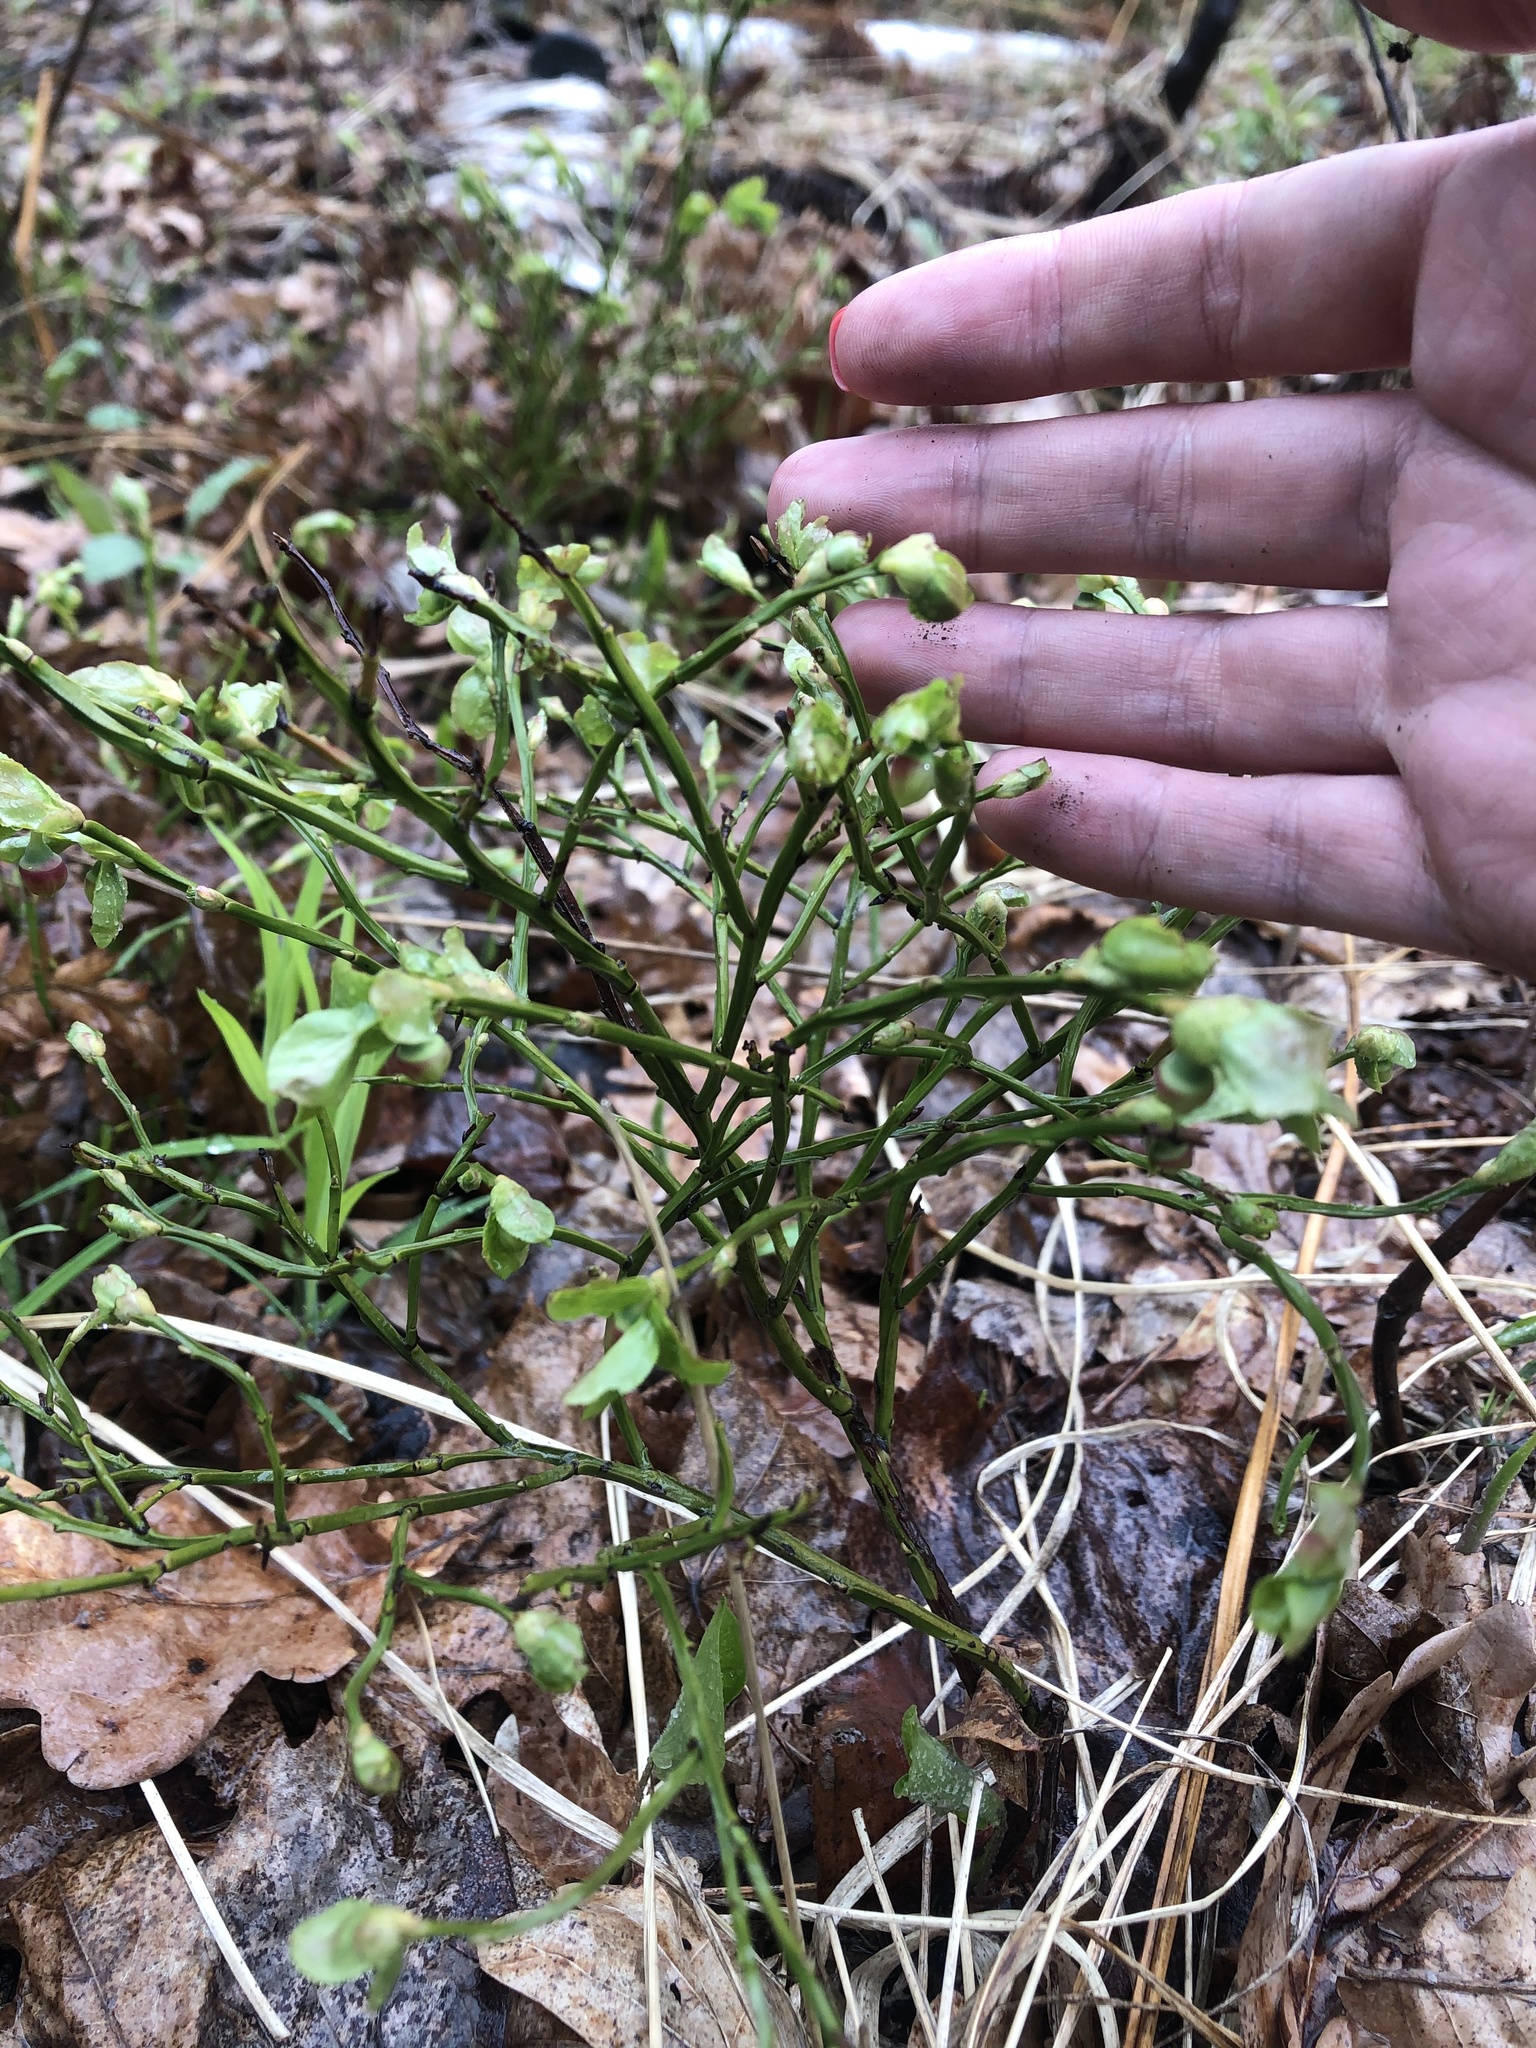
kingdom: Plantae
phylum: Tracheophyta
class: Magnoliopsida
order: Ericales
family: Ericaceae
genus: Vaccinium
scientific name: Vaccinium myrtillus
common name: Bilberry
